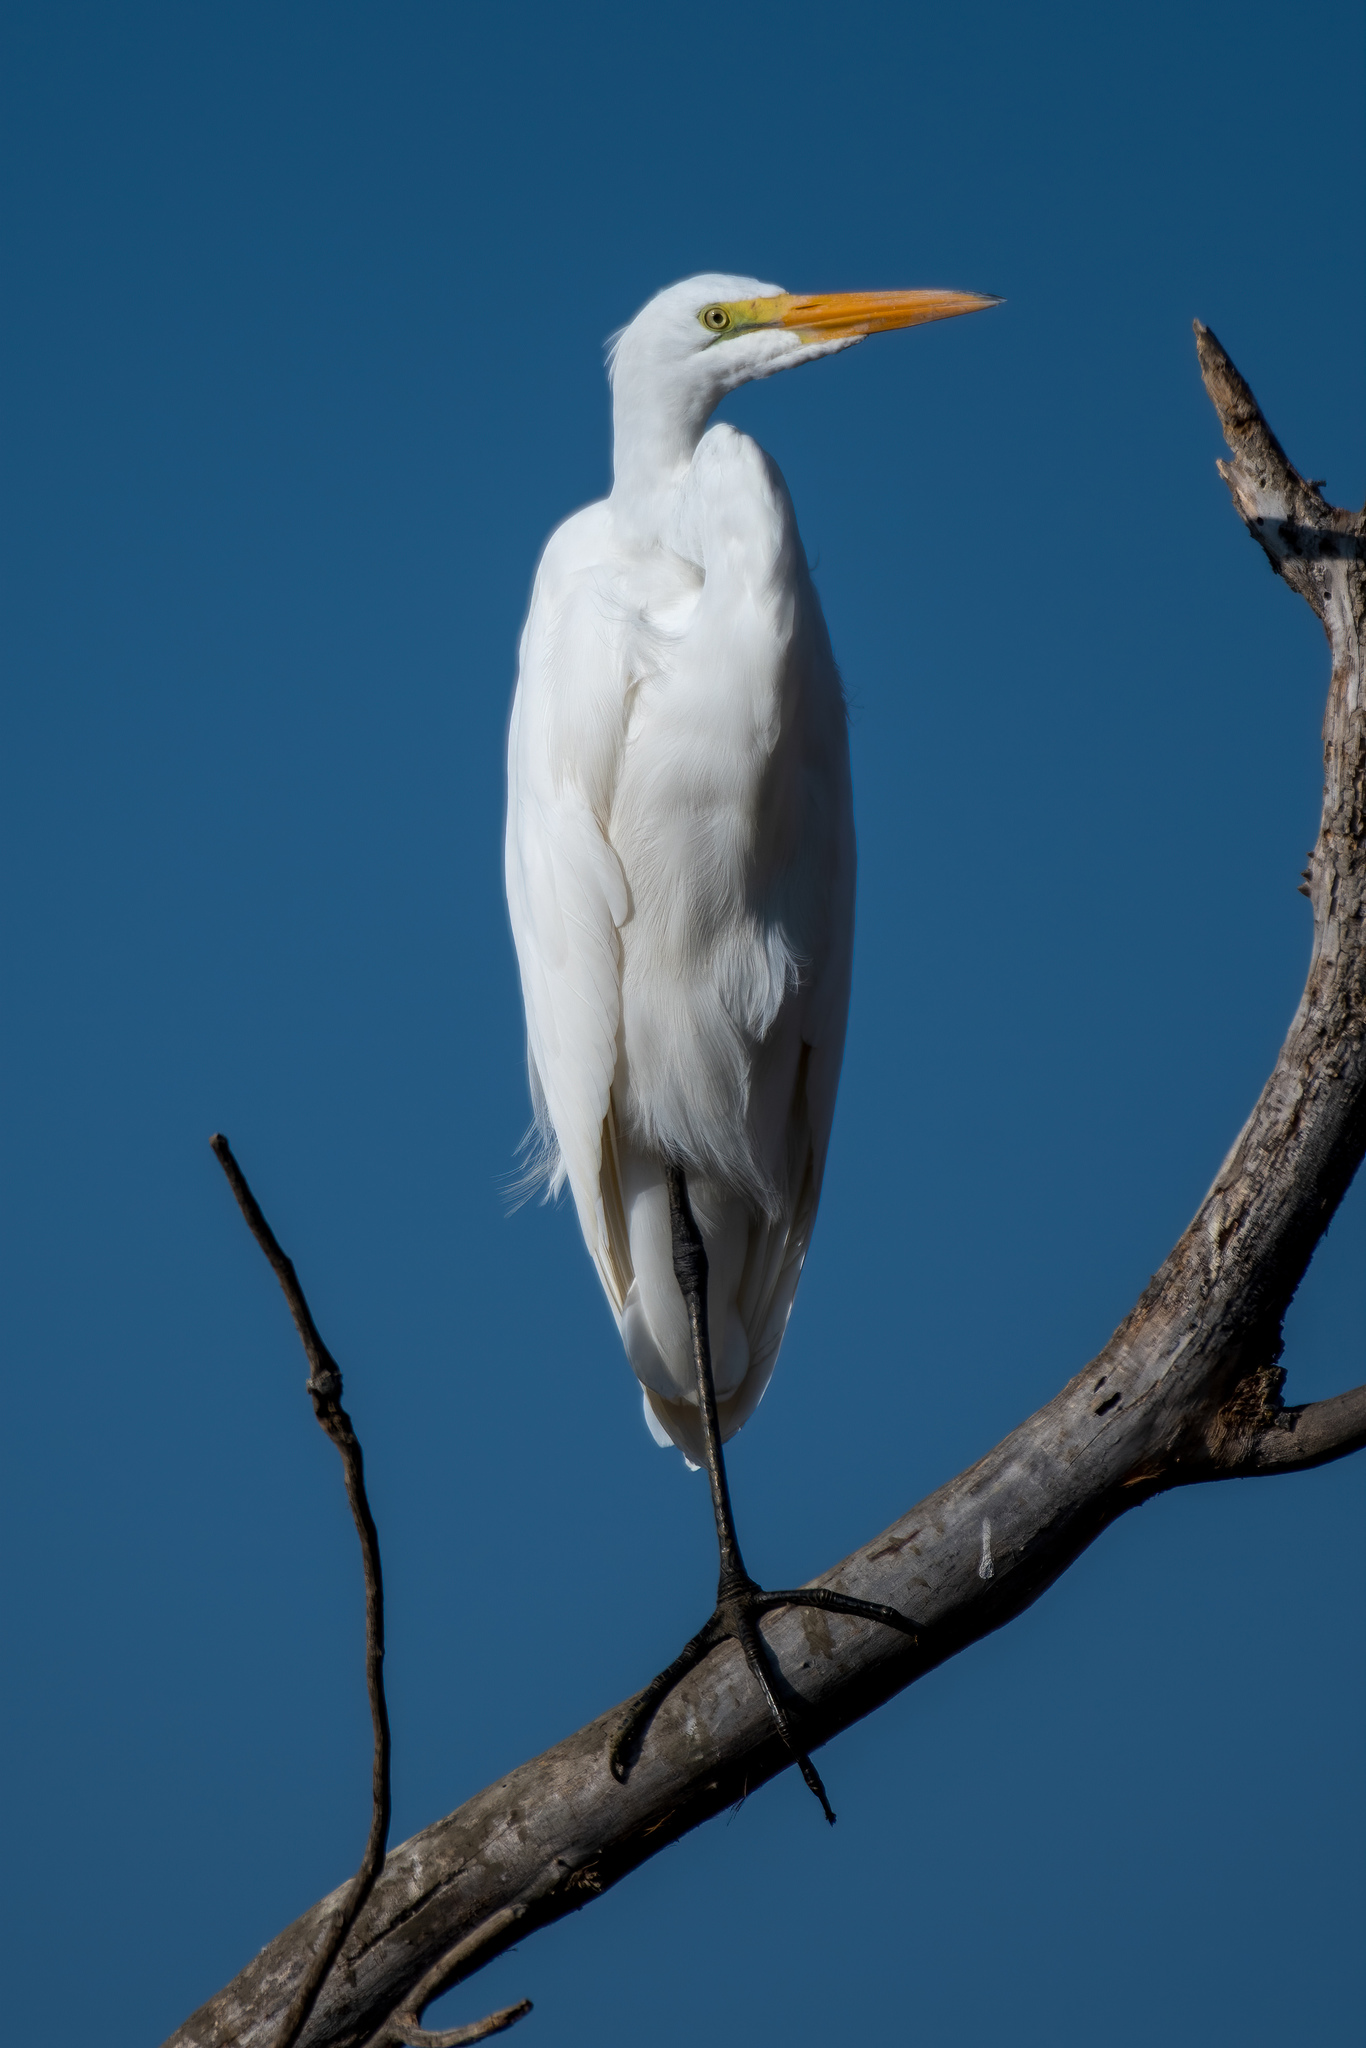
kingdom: Animalia
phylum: Chordata
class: Aves
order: Pelecaniformes
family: Ardeidae
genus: Ardea
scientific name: Ardea alba
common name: Great egret
